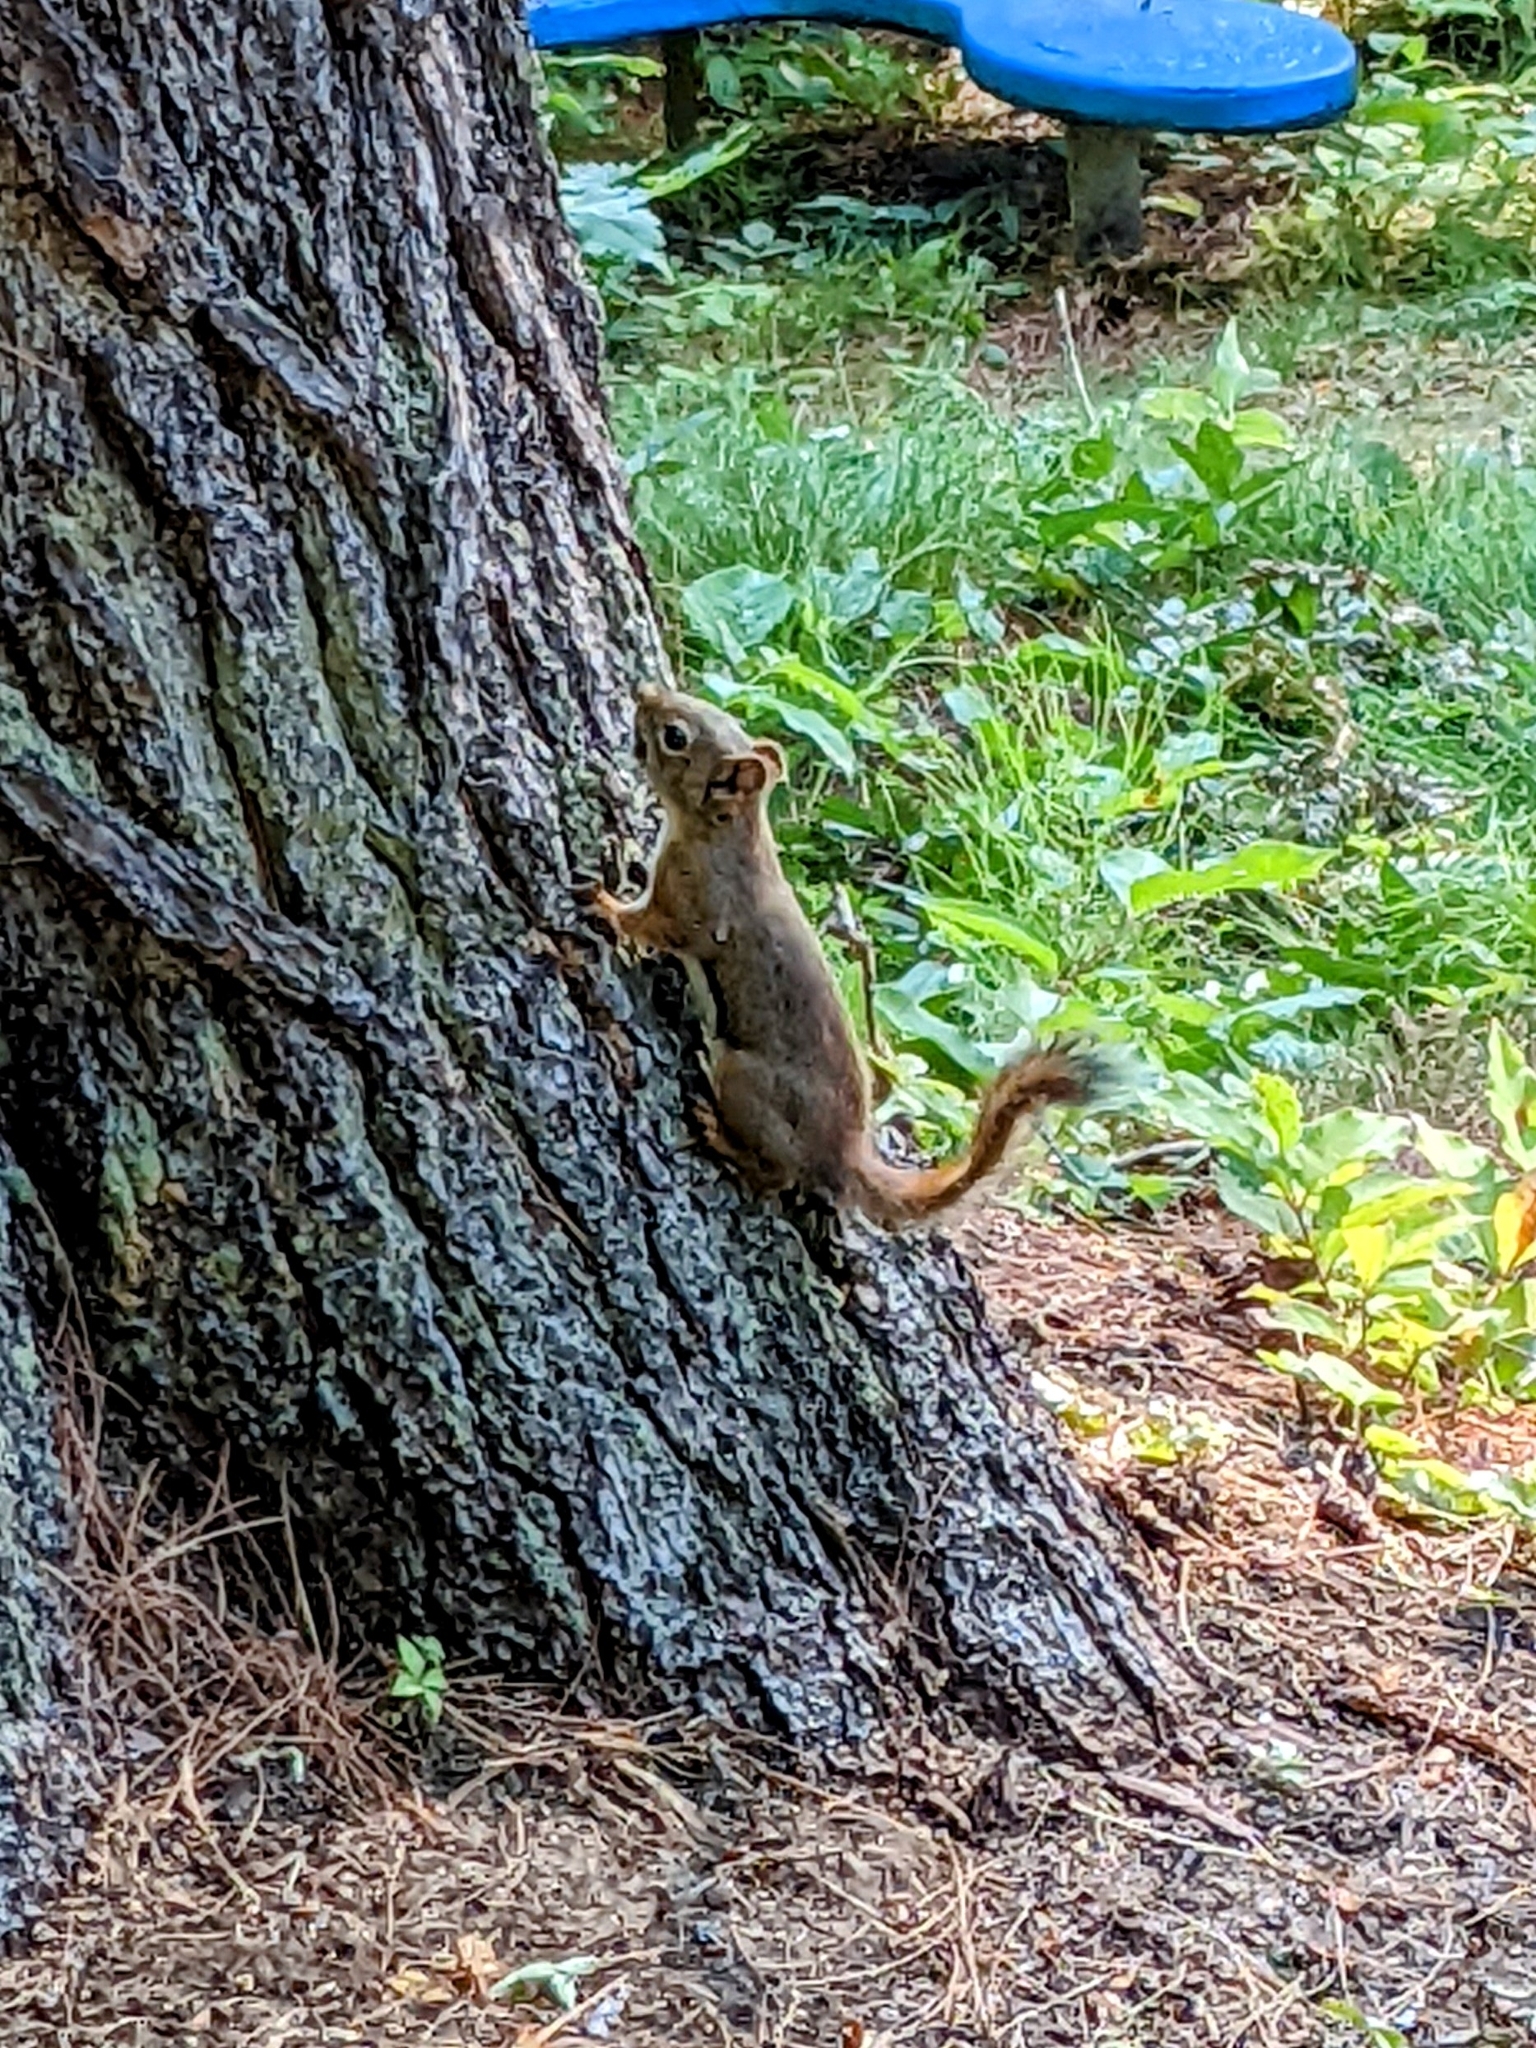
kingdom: Animalia
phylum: Chordata
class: Mammalia
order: Rodentia
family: Sciuridae
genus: Tamiasciurus
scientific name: Tamiasciurus hudsonicus
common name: Red squirrel
